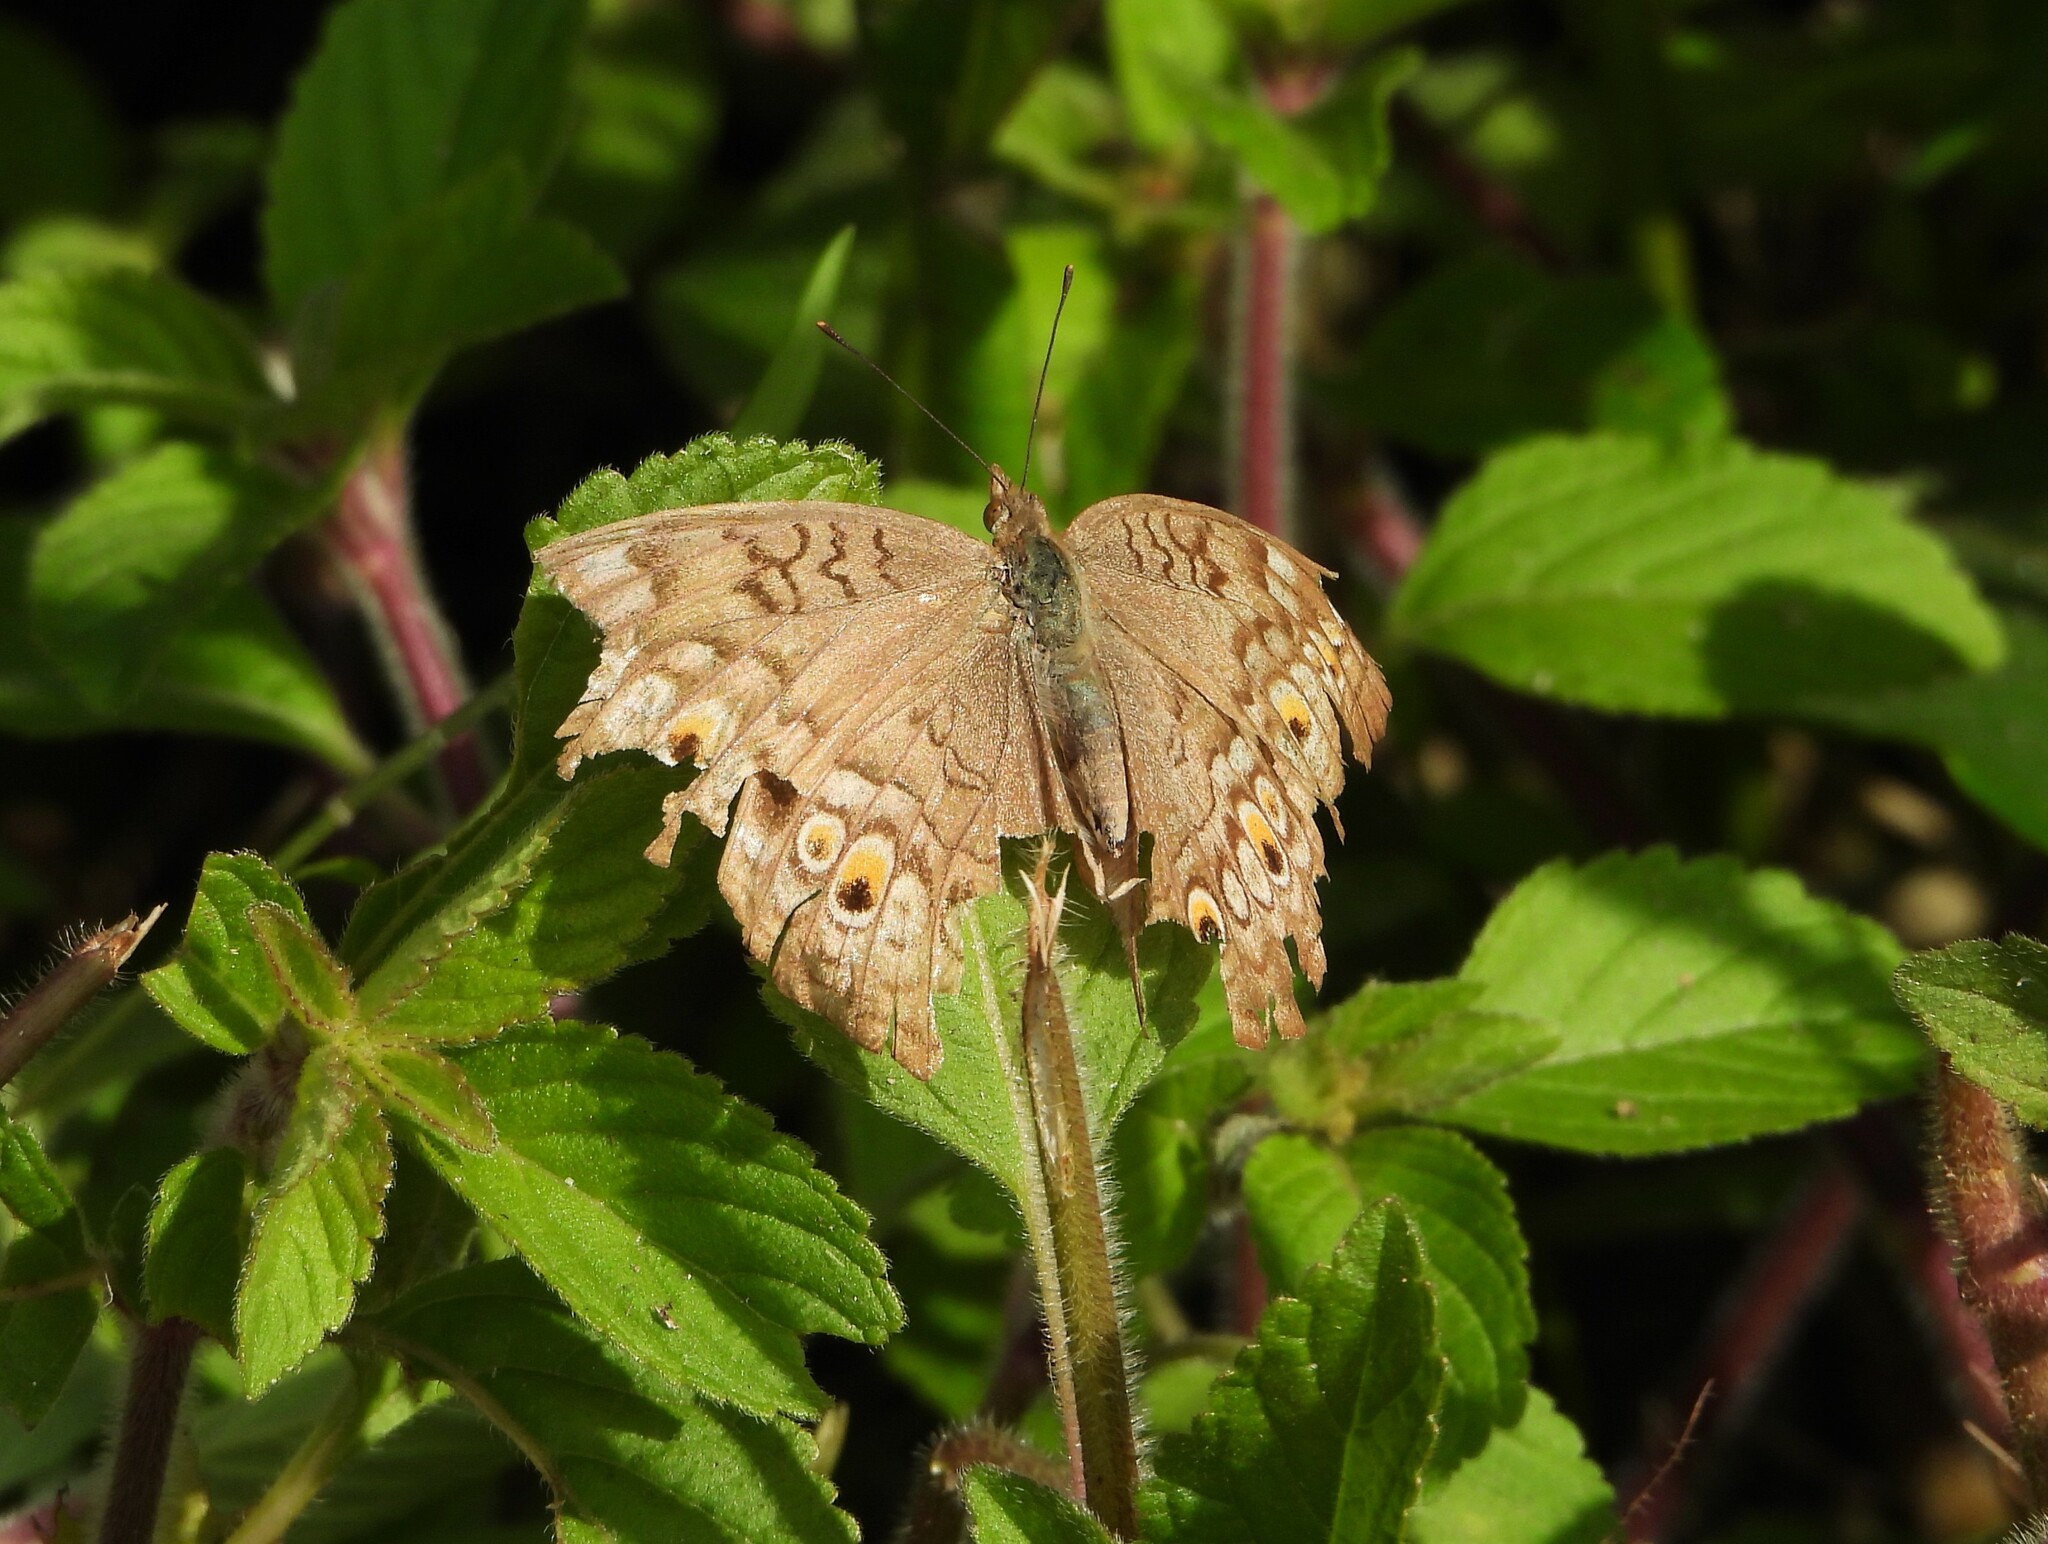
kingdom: Animalia
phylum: Arthropoda
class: Insecta
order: Lepidoptera
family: Nymphalidae
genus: Junonia
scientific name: Junonia atlites
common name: Grey pansy
